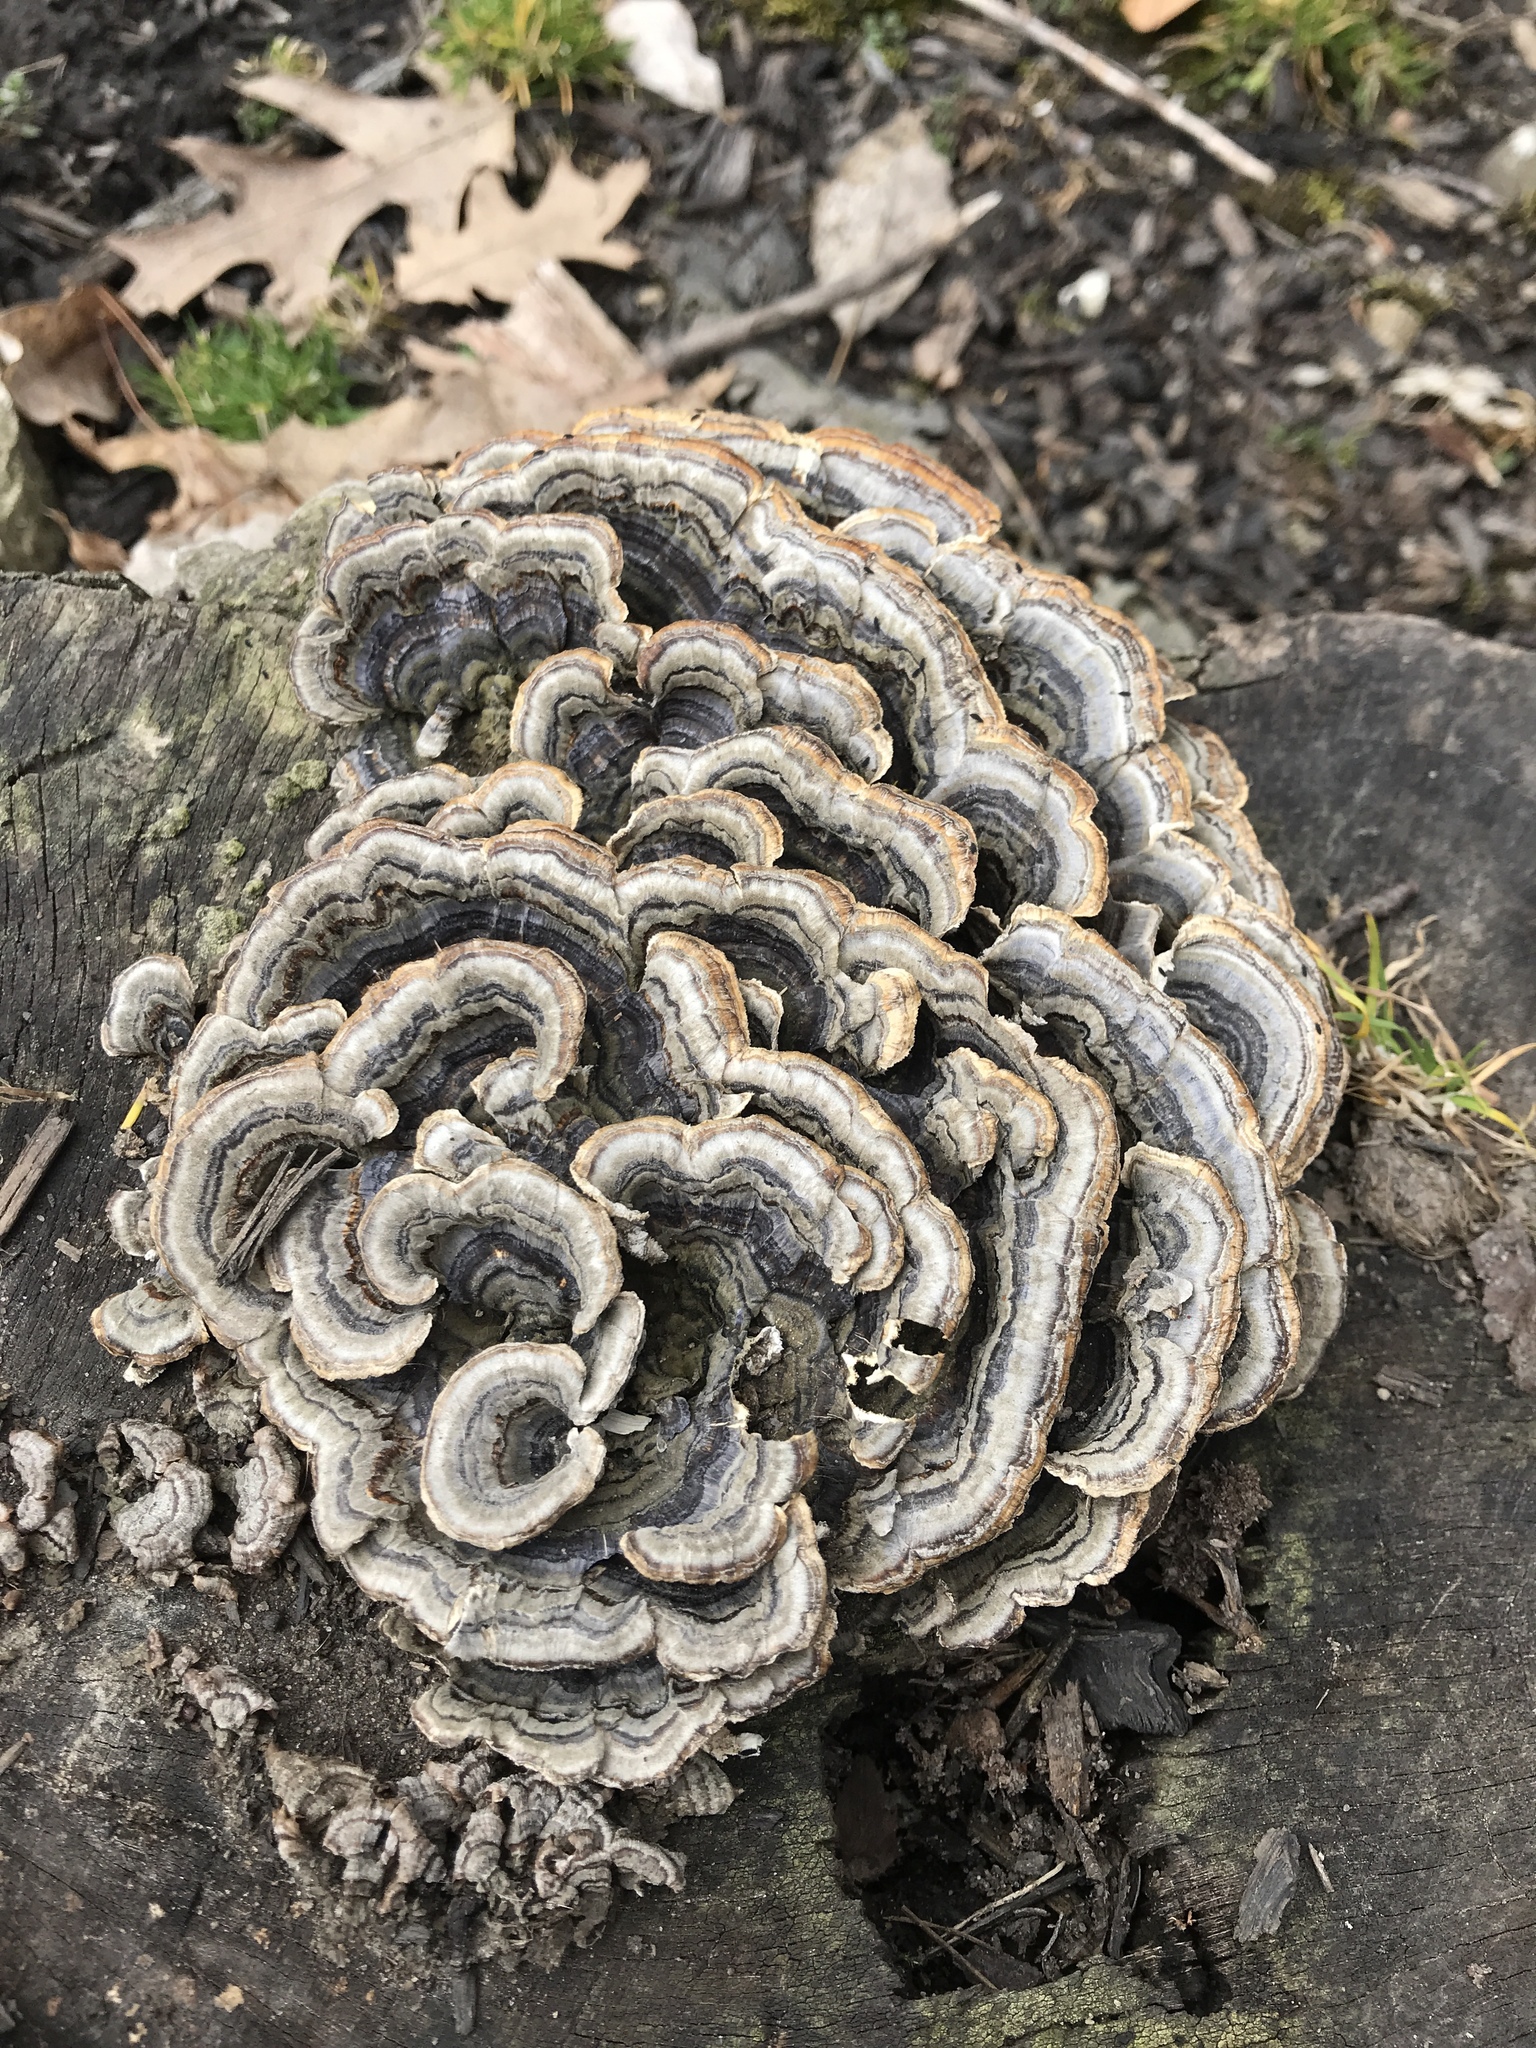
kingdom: Fungi
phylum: Basidiomycota
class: Agaricomycetes
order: Polyporales
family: Polyporaceae
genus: Trametes
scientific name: Trametes versicolor
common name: Turkeytail
